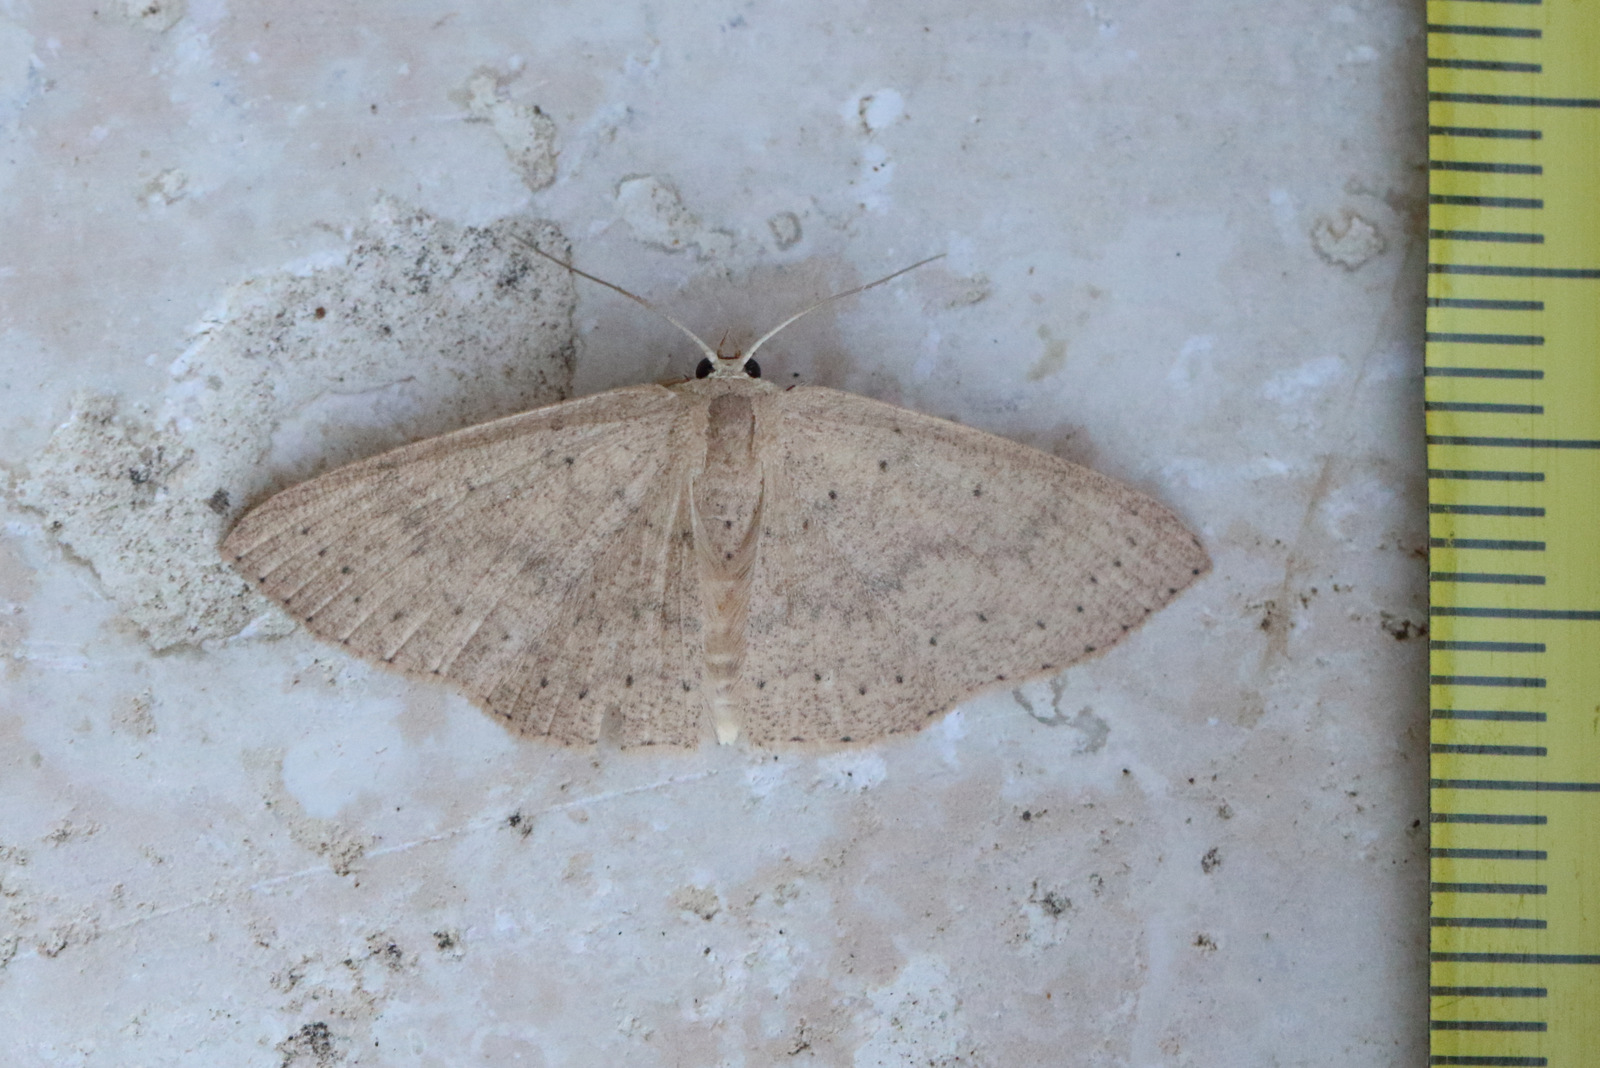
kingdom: Animalia
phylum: Arthropoda
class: Insecta
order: Lepidoptera
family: Geometridae
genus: Cyclophora
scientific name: Cyclophora obstataria
